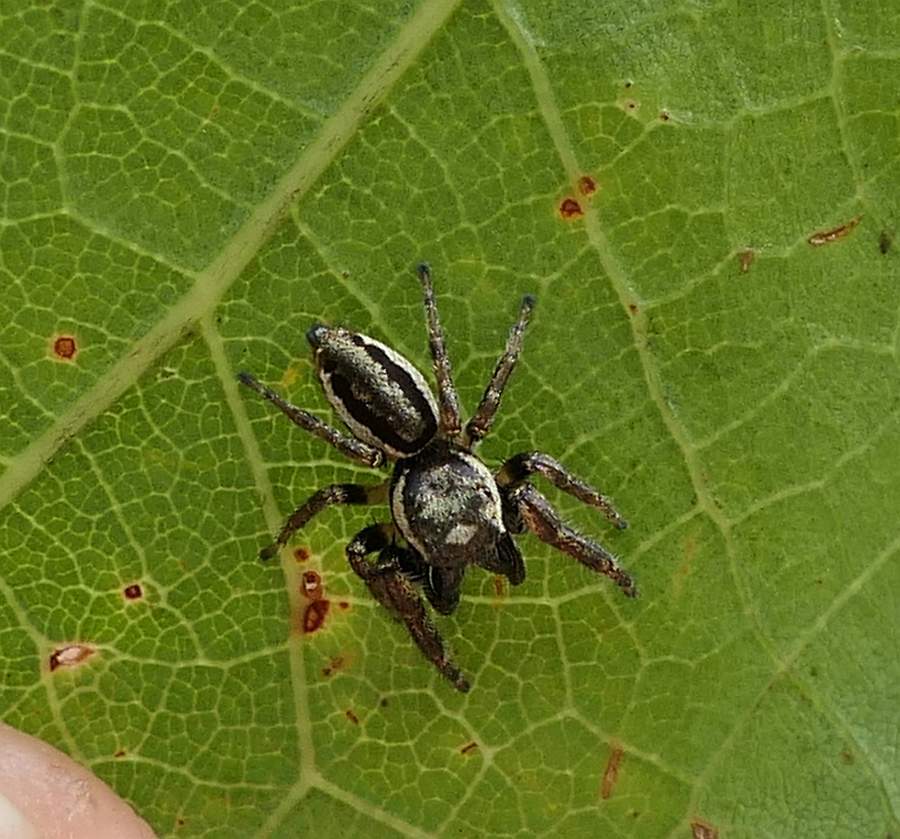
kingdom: Animalia
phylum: Arthropoda
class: Arachnida
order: Araneae
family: Salticidae
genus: Eris
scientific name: Eris militaris
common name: Bronze jumper
